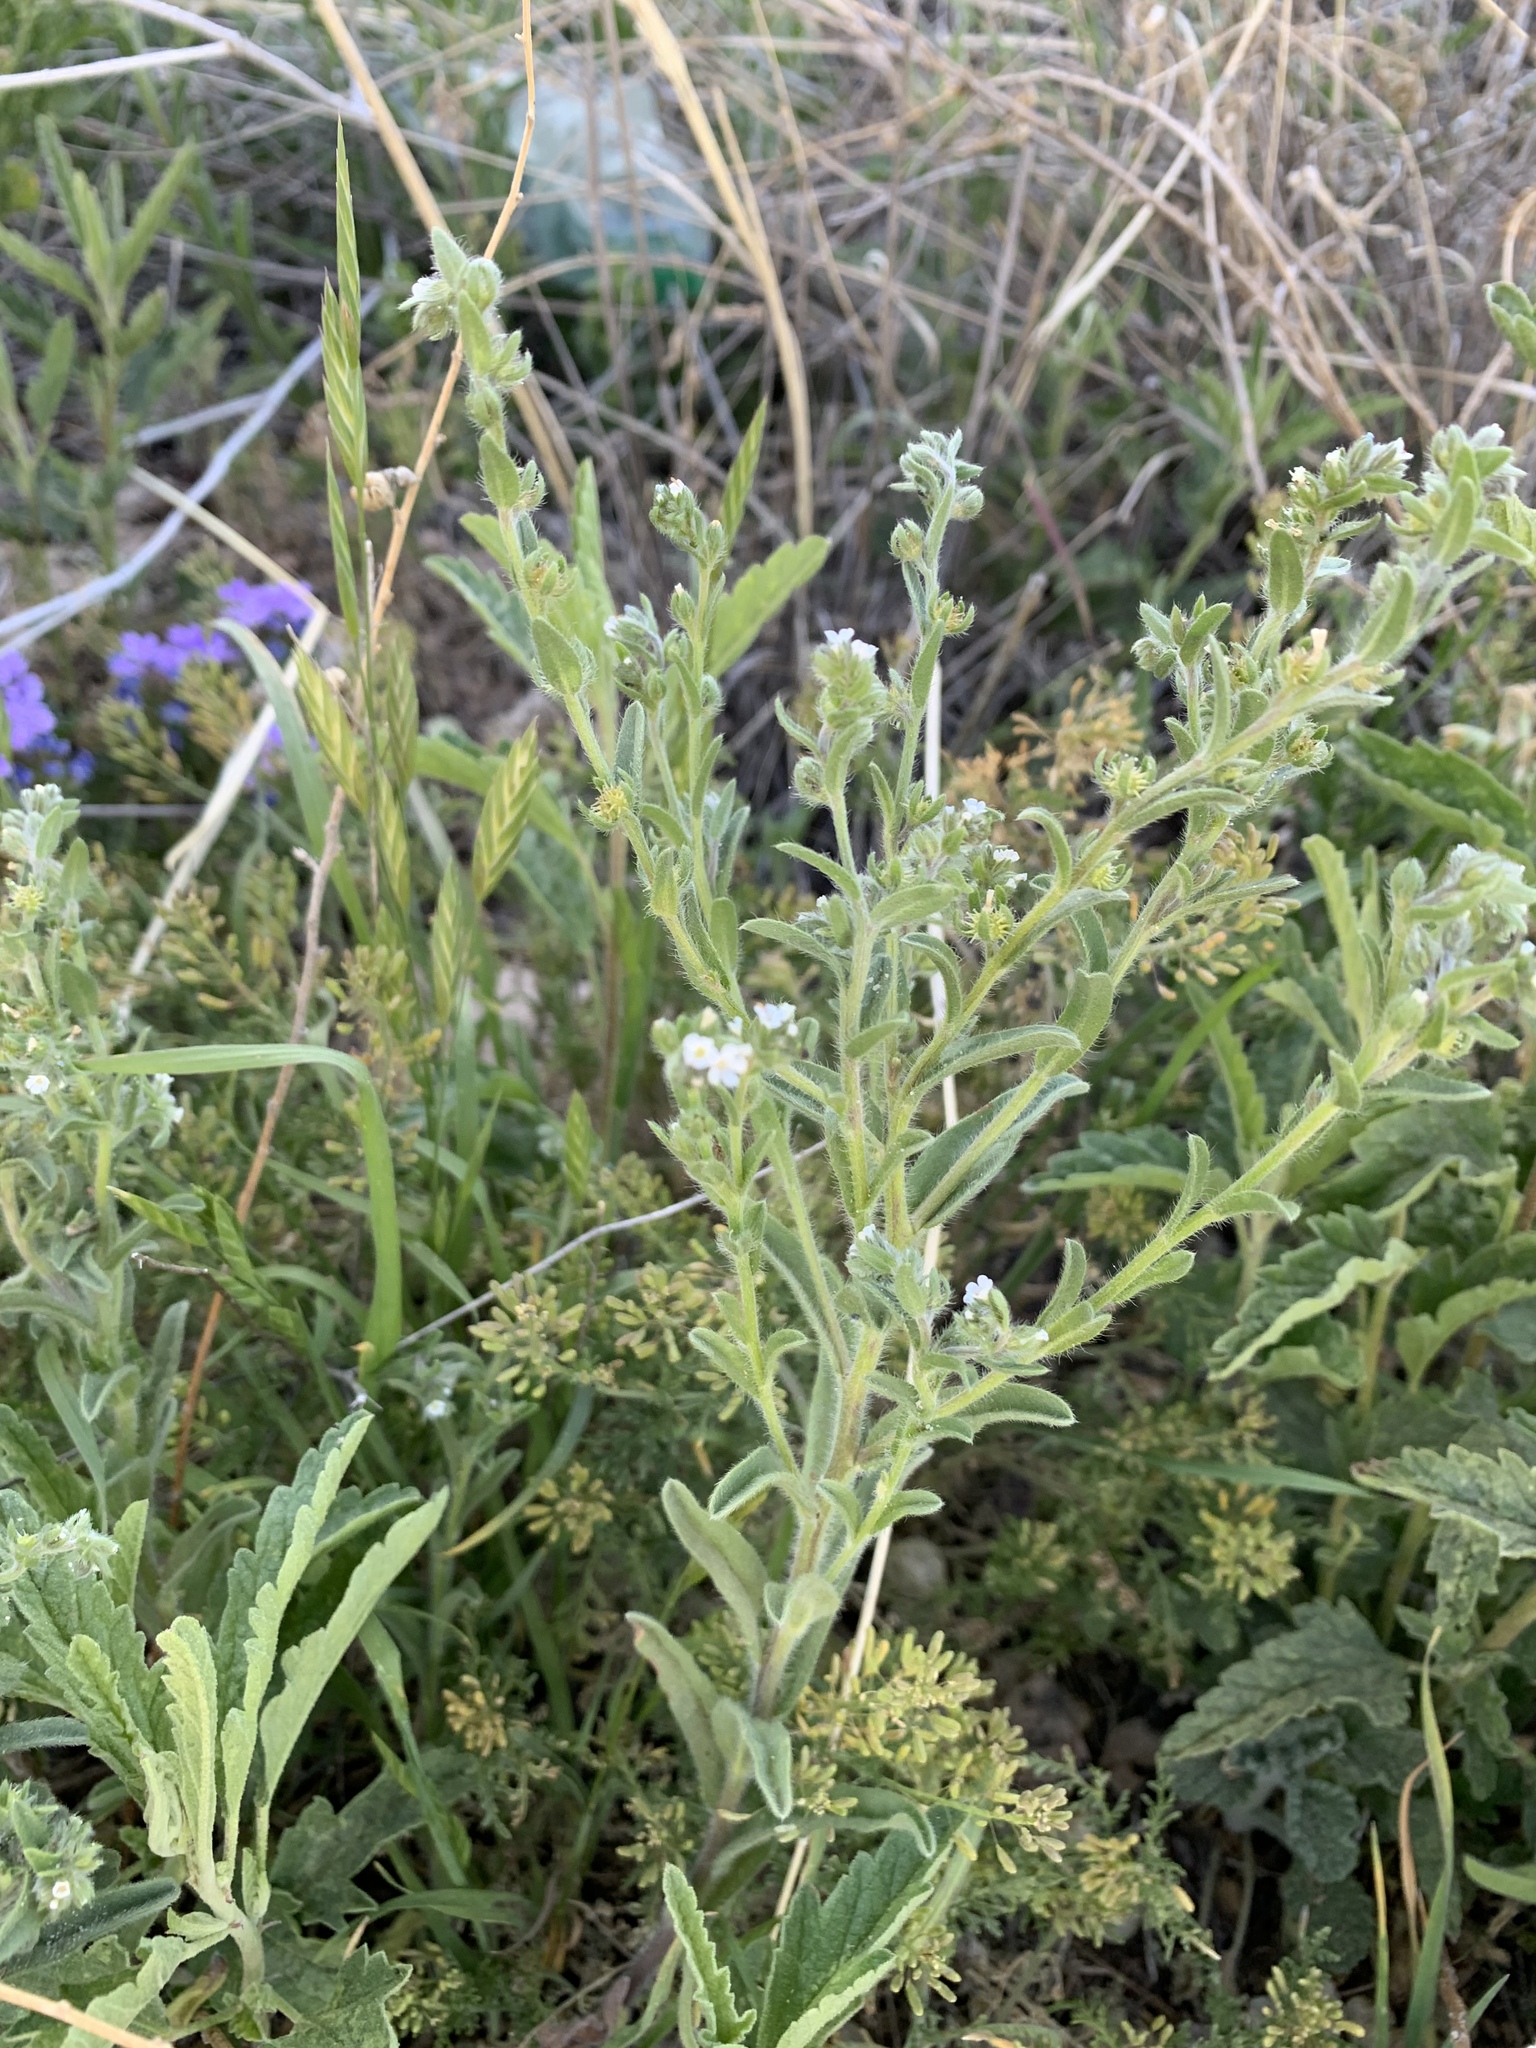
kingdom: Plantae
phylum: Tracheophyta
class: Magnoliopsida
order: Boraginales
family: Boraginaceae
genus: Lappula
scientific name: Lappula occidentalis
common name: Western stickseed
